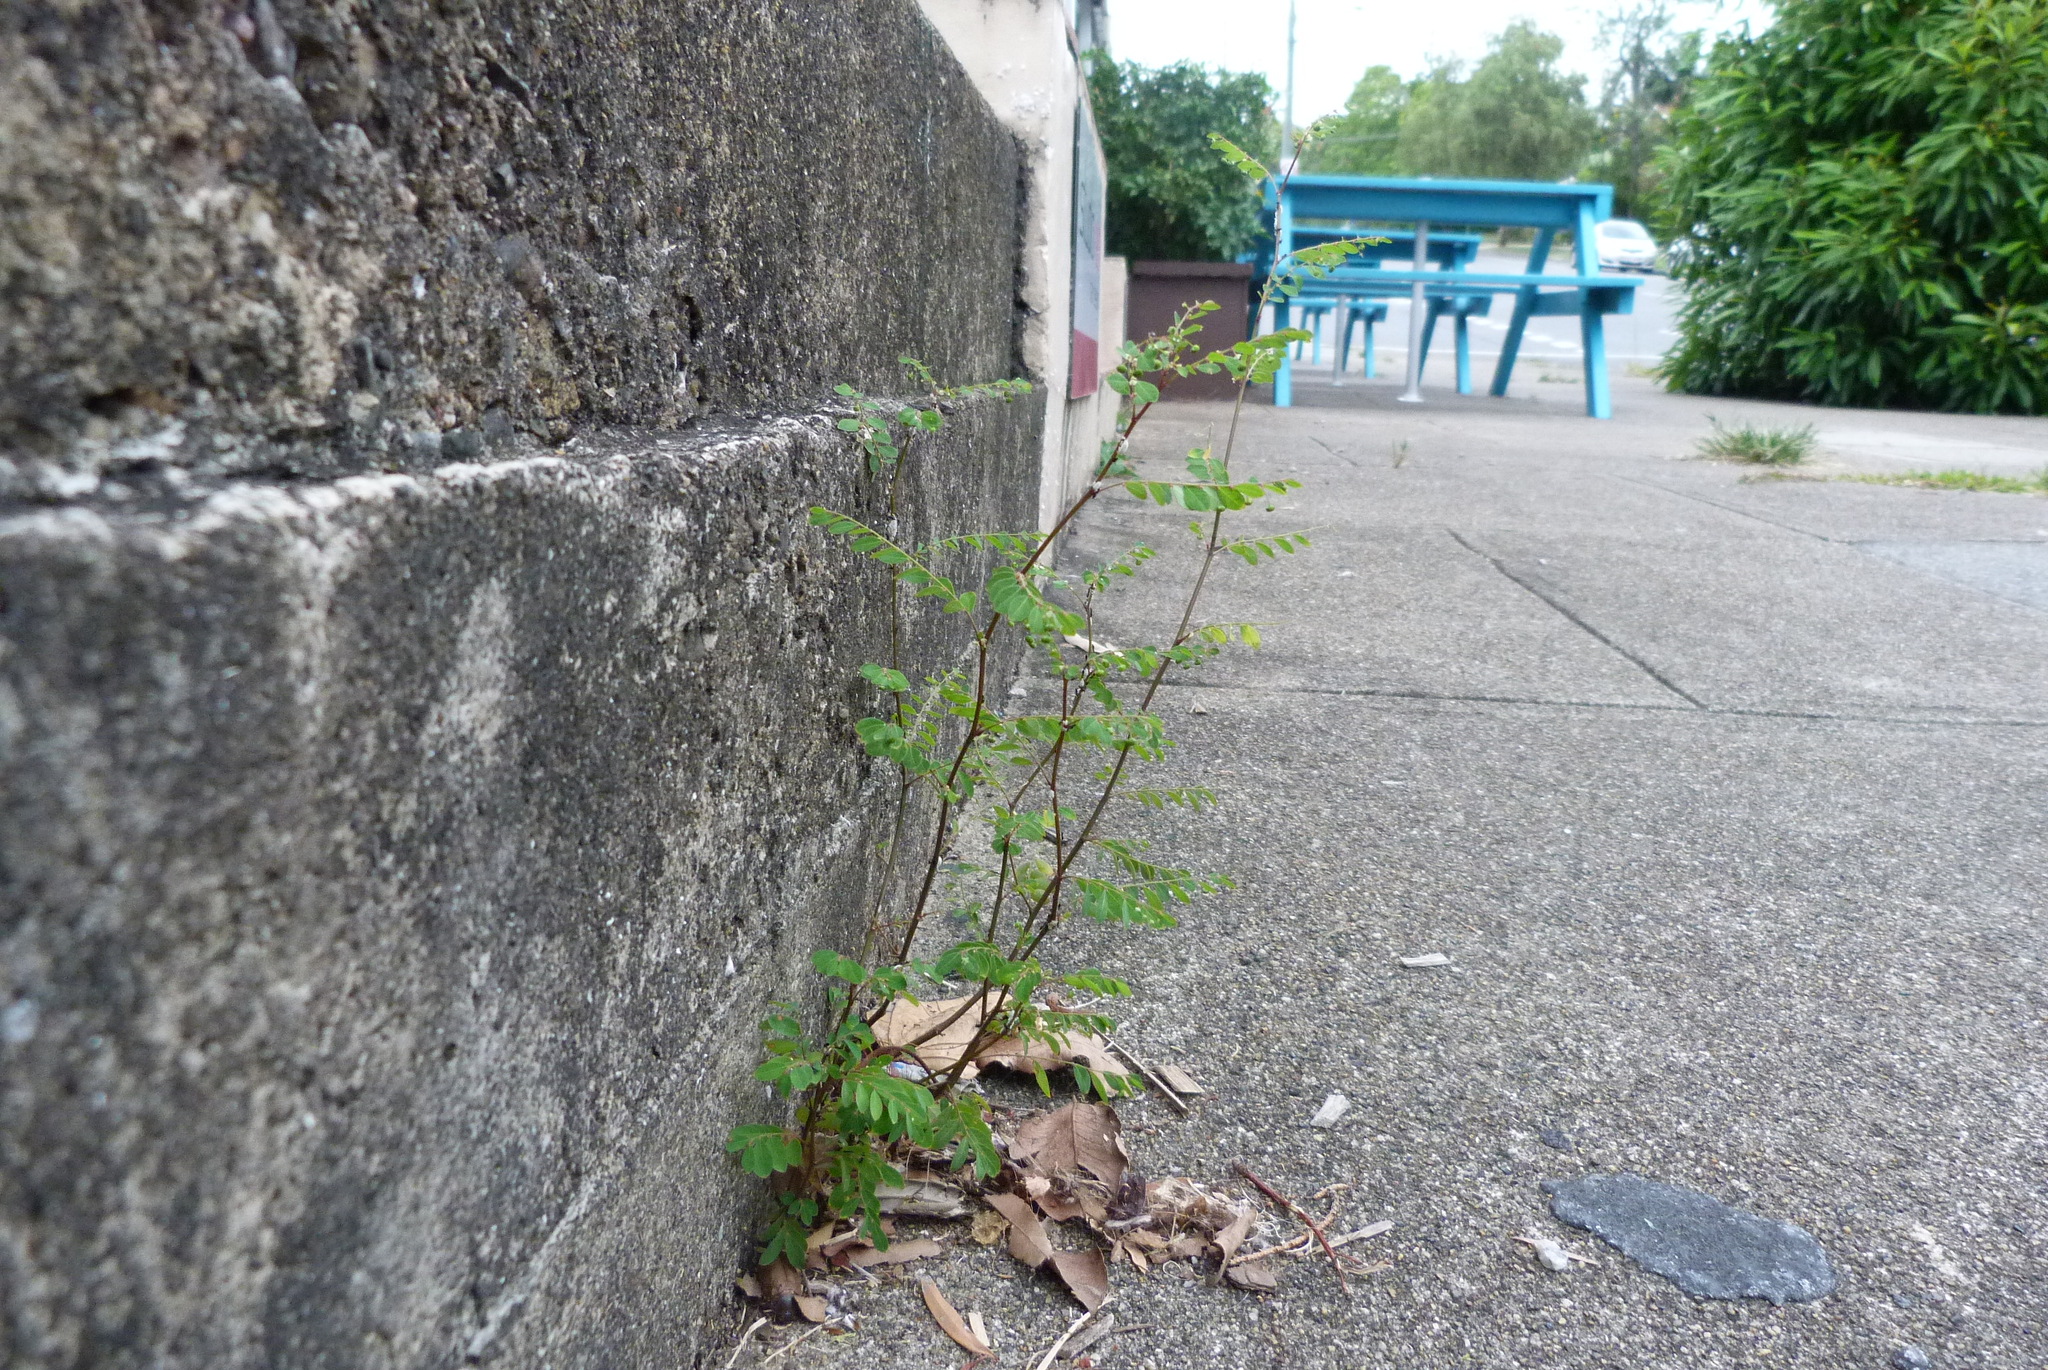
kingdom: Plantae
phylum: Tracheophyta
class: Magnoliopsida
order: Malpighiales
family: Phyllanthaceae
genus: Phyllanthus
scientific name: Phyllanthus tenellus
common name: Mascarene island leaf-flower
